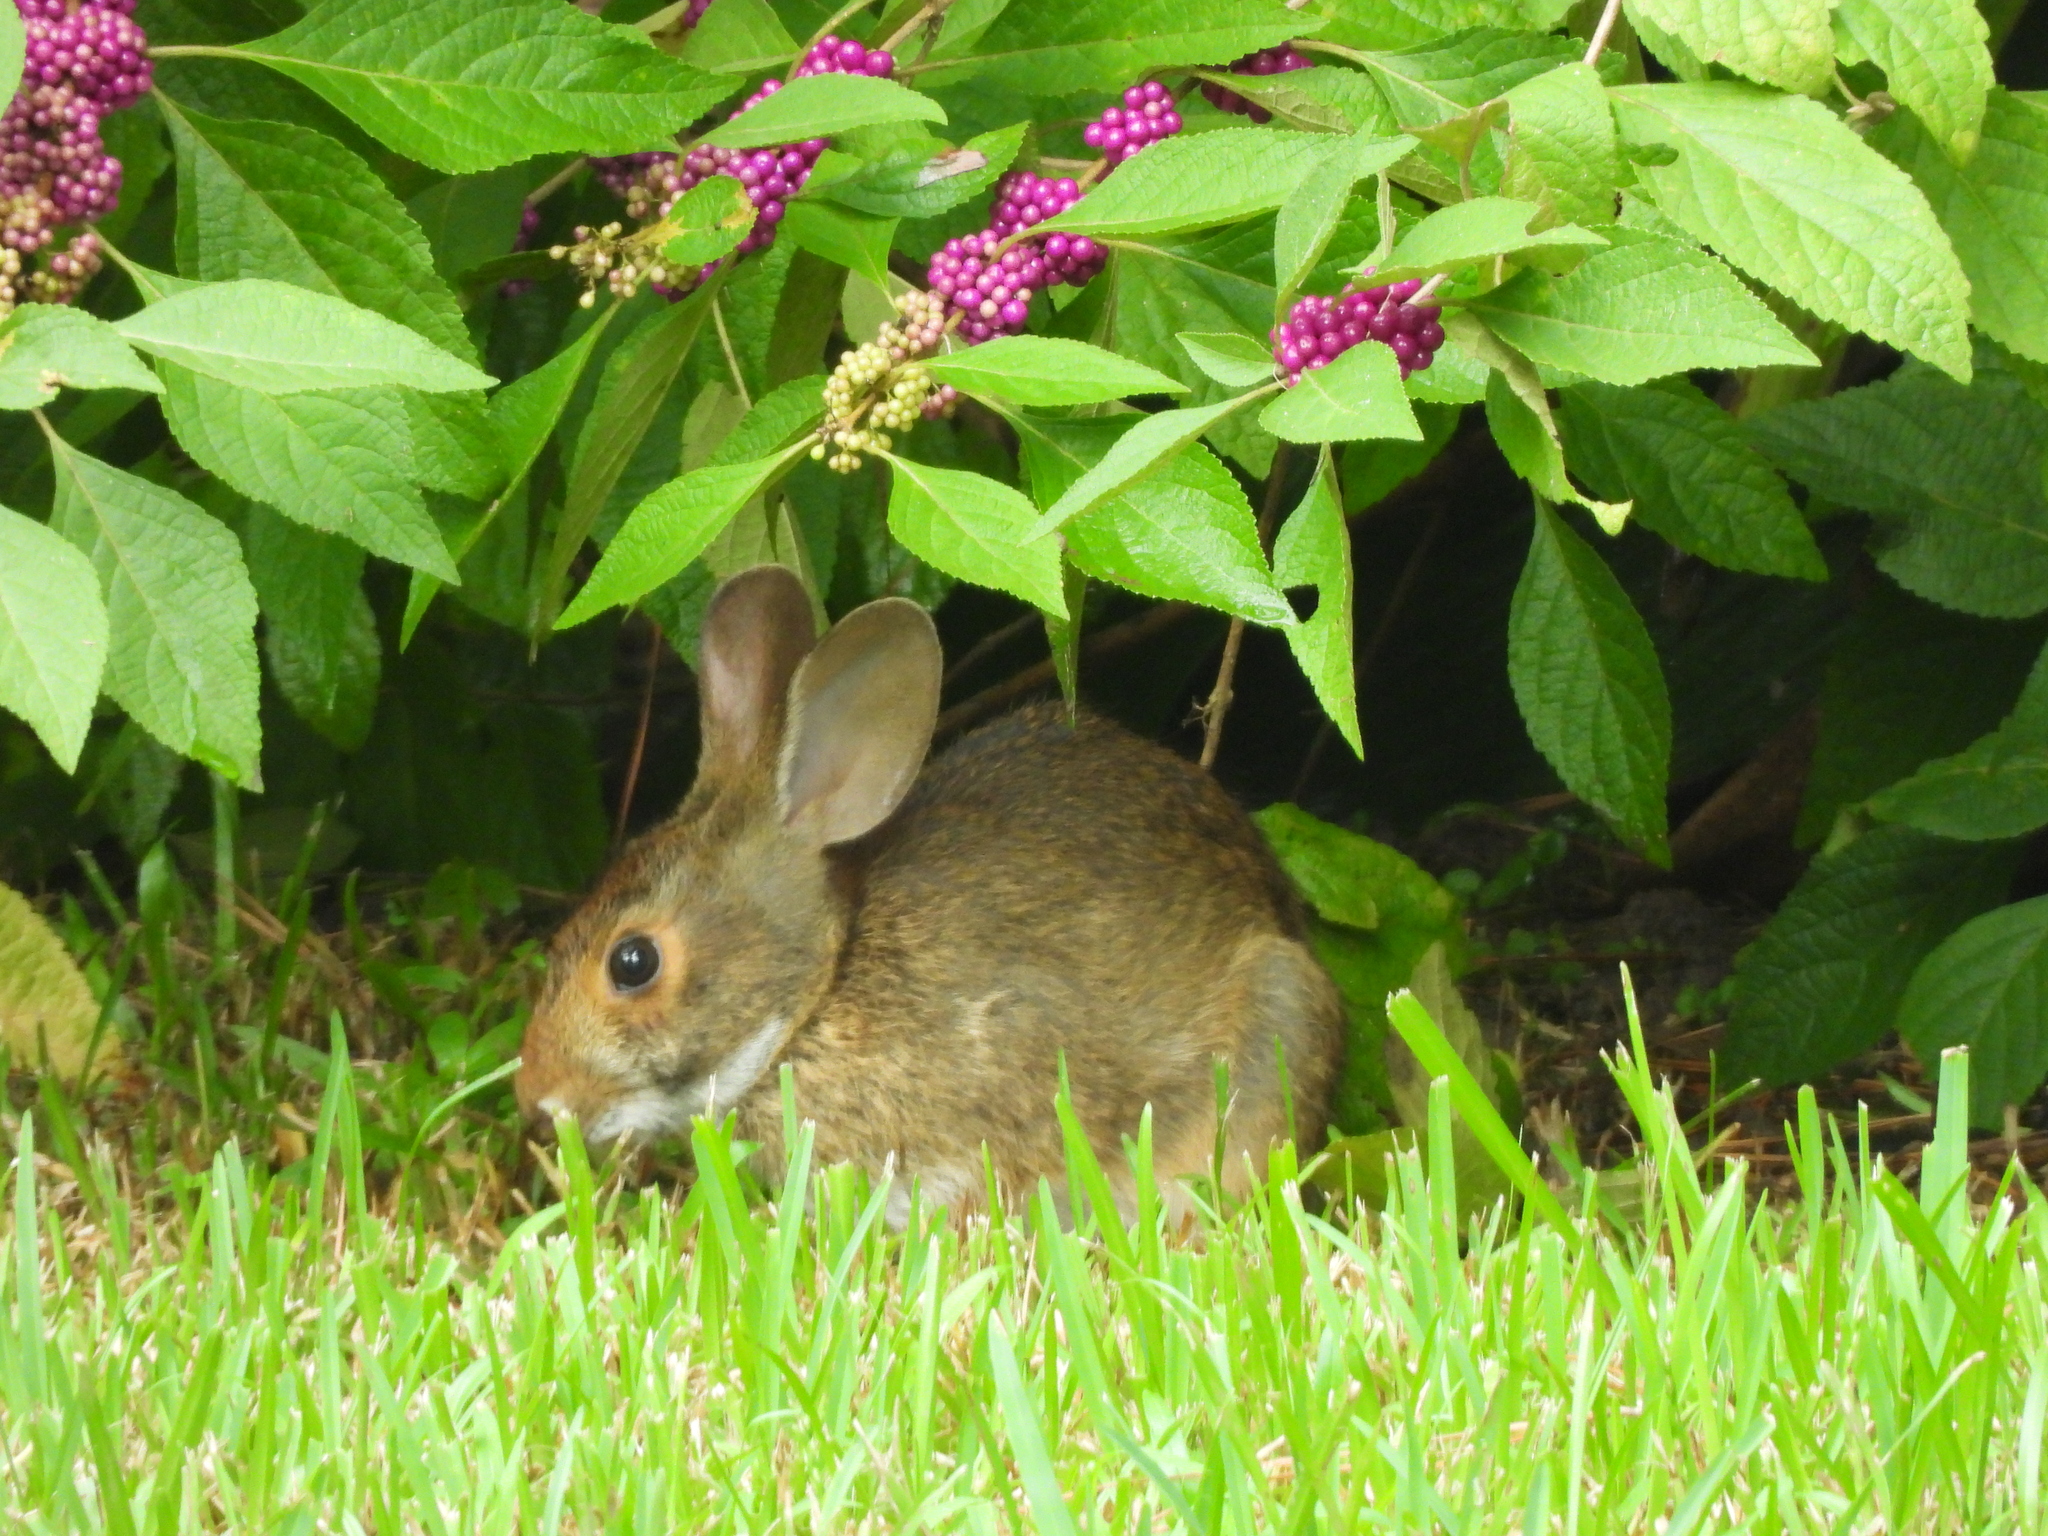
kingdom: Animalia
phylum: Chordata
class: Mammalia
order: Lagomorpha
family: Leporidae
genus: Sylvilagus
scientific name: Sylvilagus aquaticus
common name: Swamp rabbit
